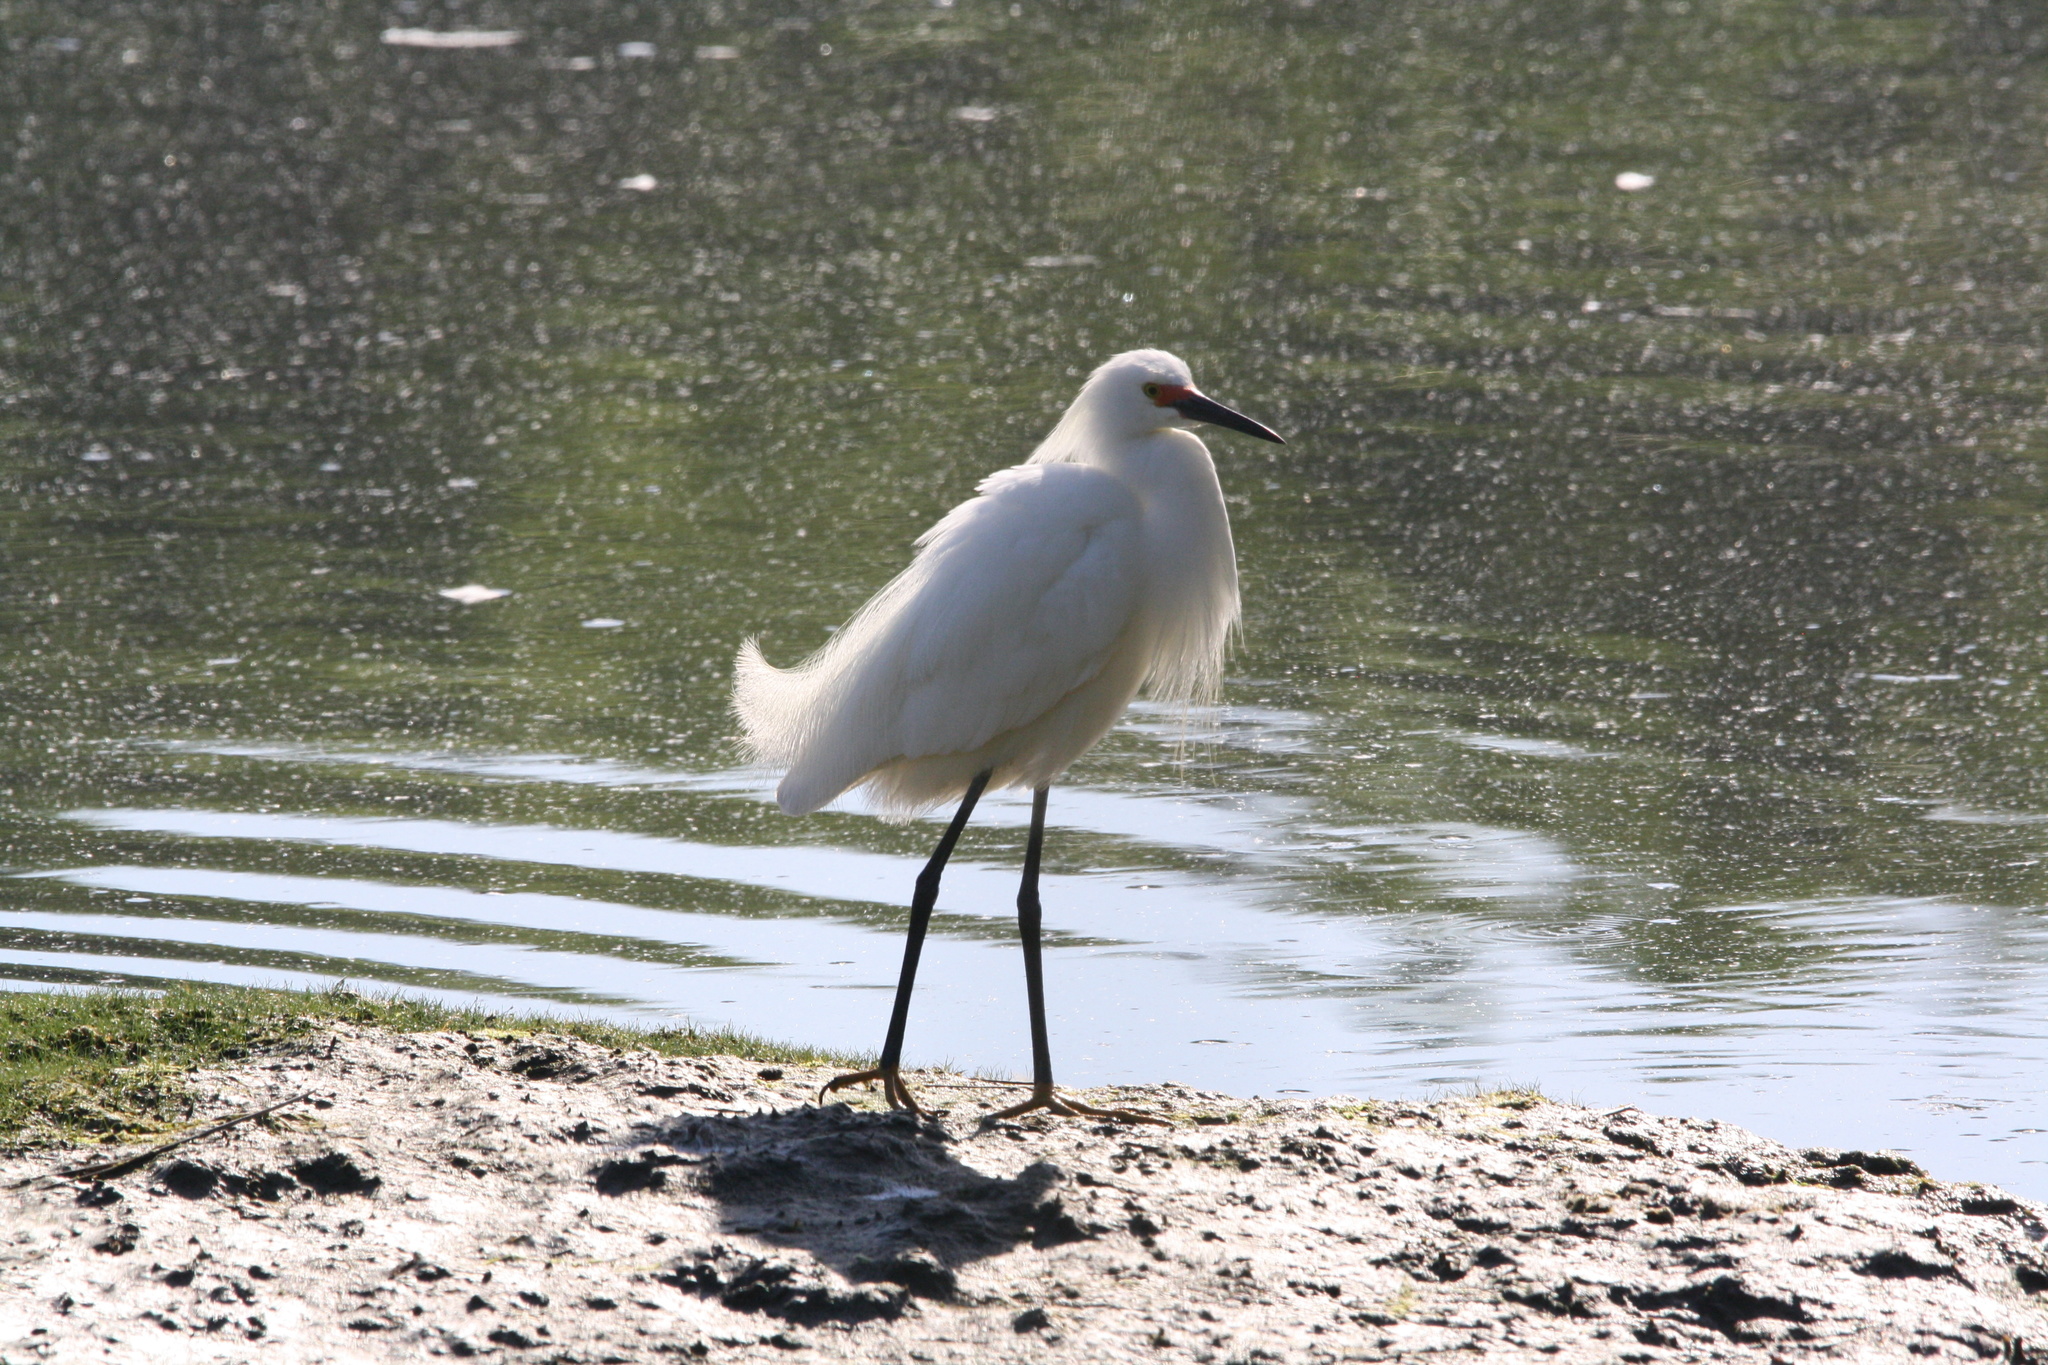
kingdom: Animalia
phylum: Chordata
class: Aves
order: Pelecaniformes
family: Ardeidae
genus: Egretta
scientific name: Egretta thula
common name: Snowy egret
